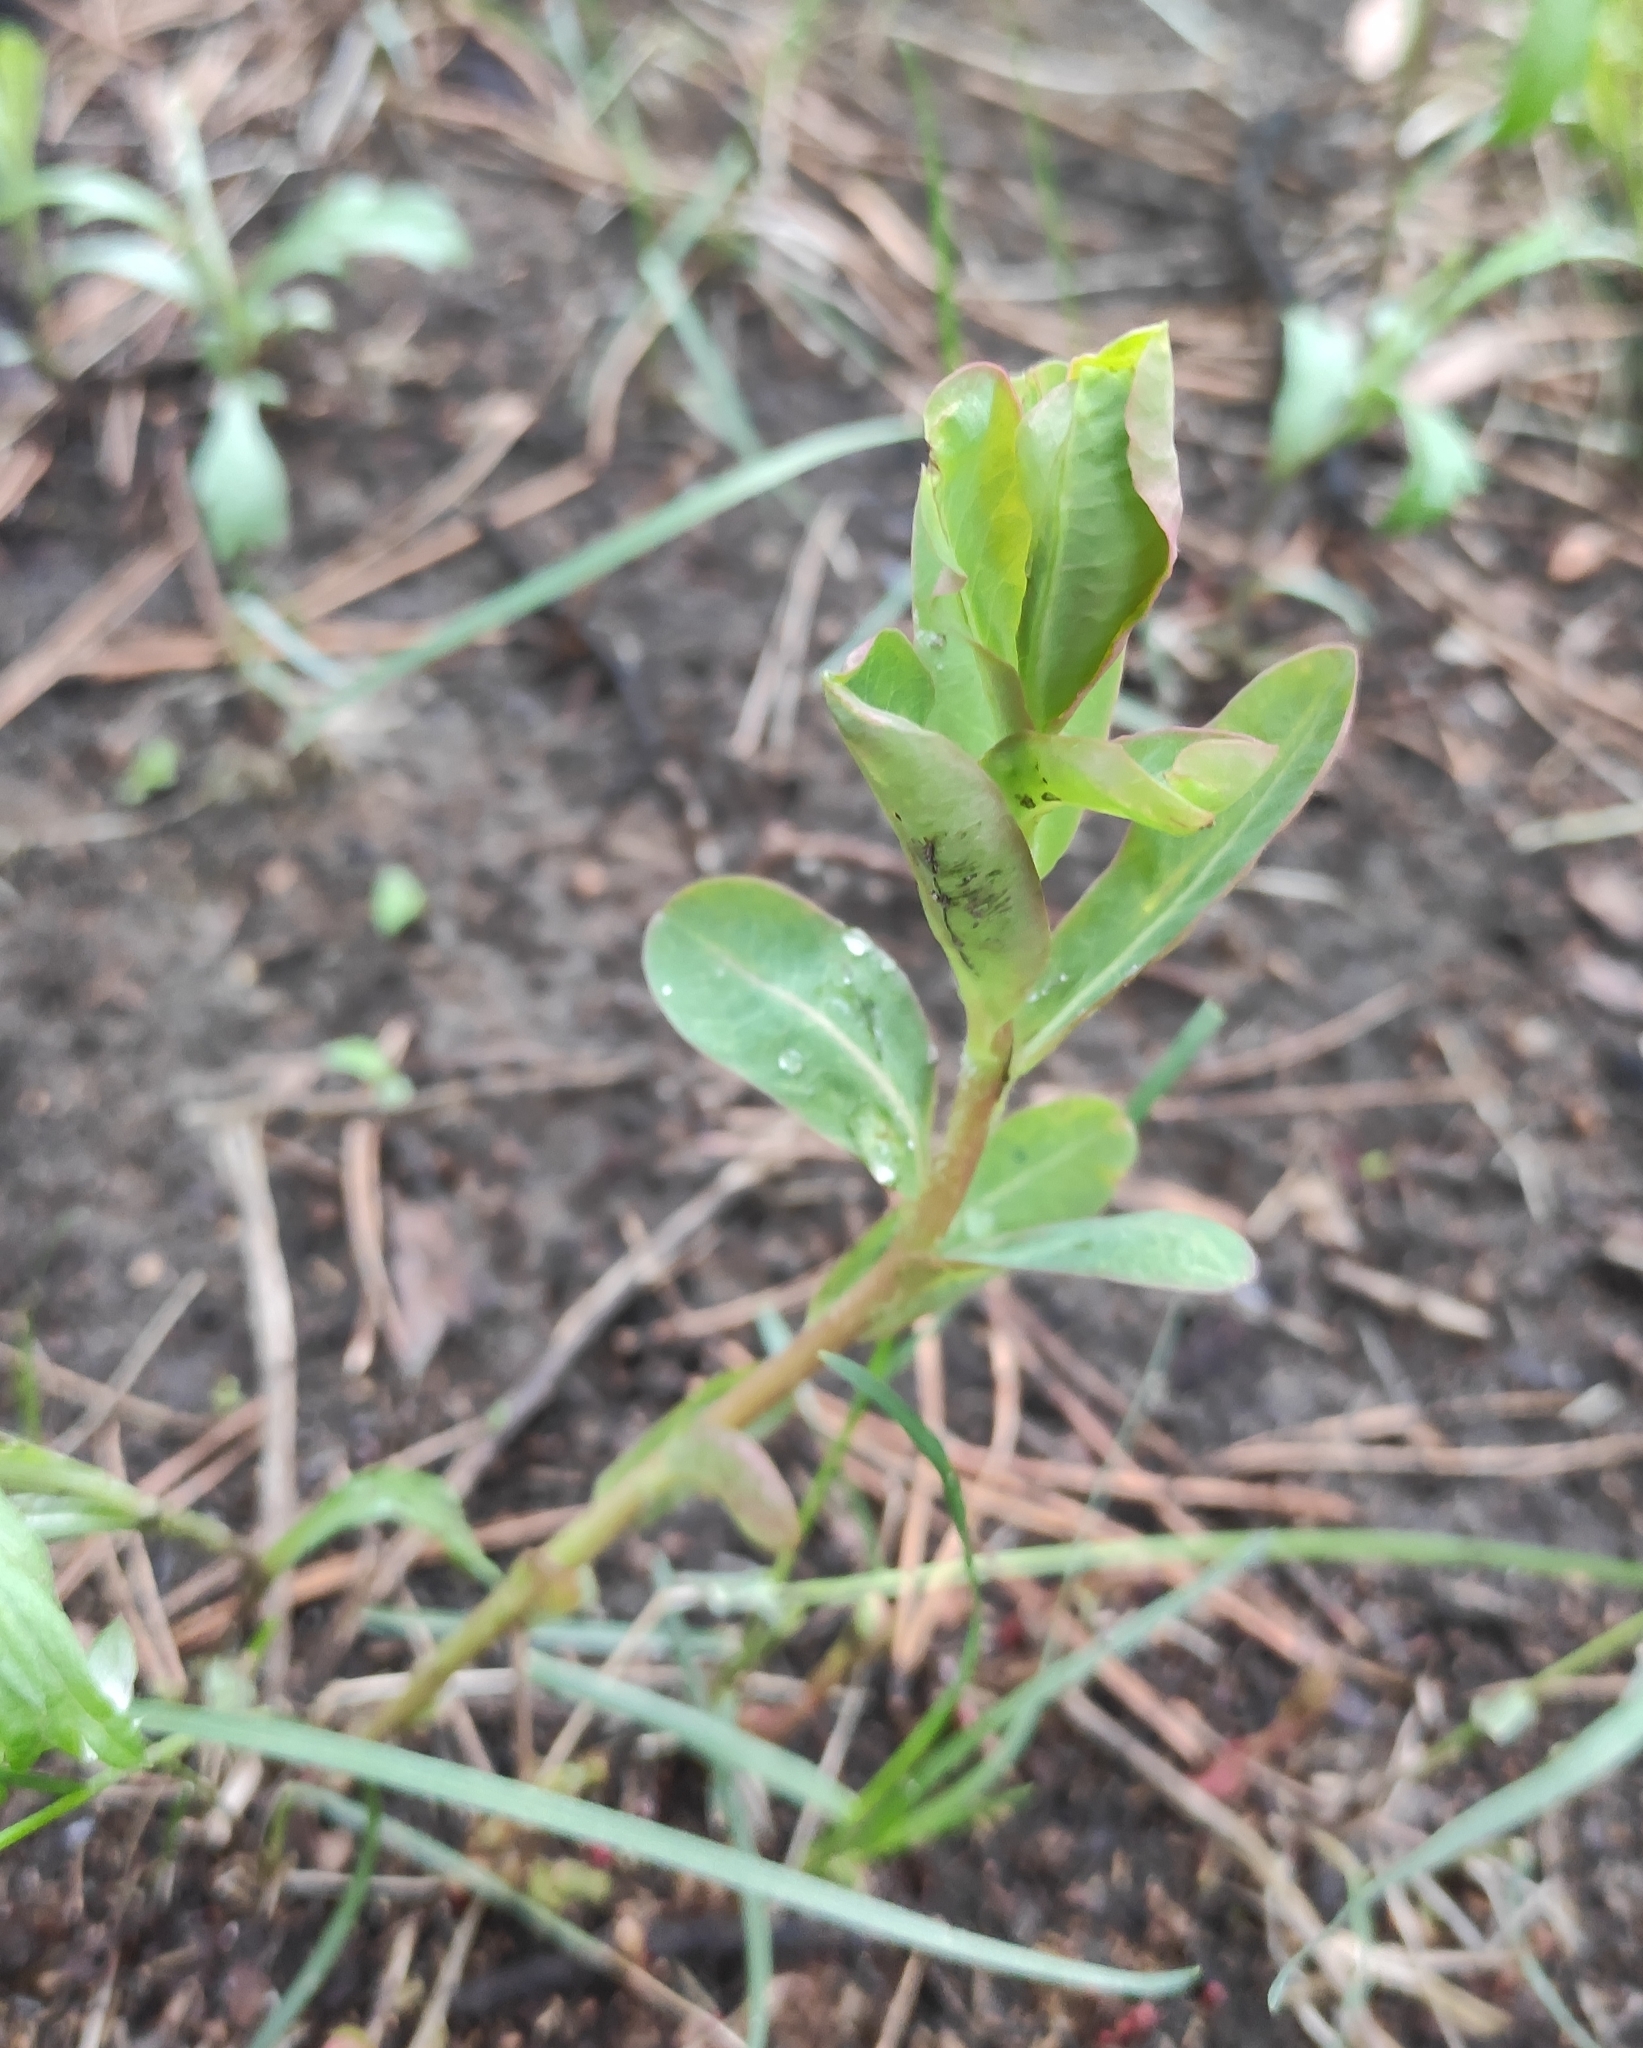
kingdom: Plantae
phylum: Tracheophyta
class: Magnoliopsida
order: Malpighiales
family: Euphorbiaceae
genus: Euphorbia
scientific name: Euphorbia jenisseiensis
